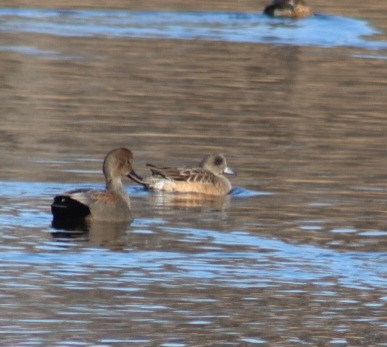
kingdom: Animalia
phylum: Chordata
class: Aves
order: Anseriformes
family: Anatidae
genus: Mareca
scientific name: Mareca americana
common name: American wigeon
